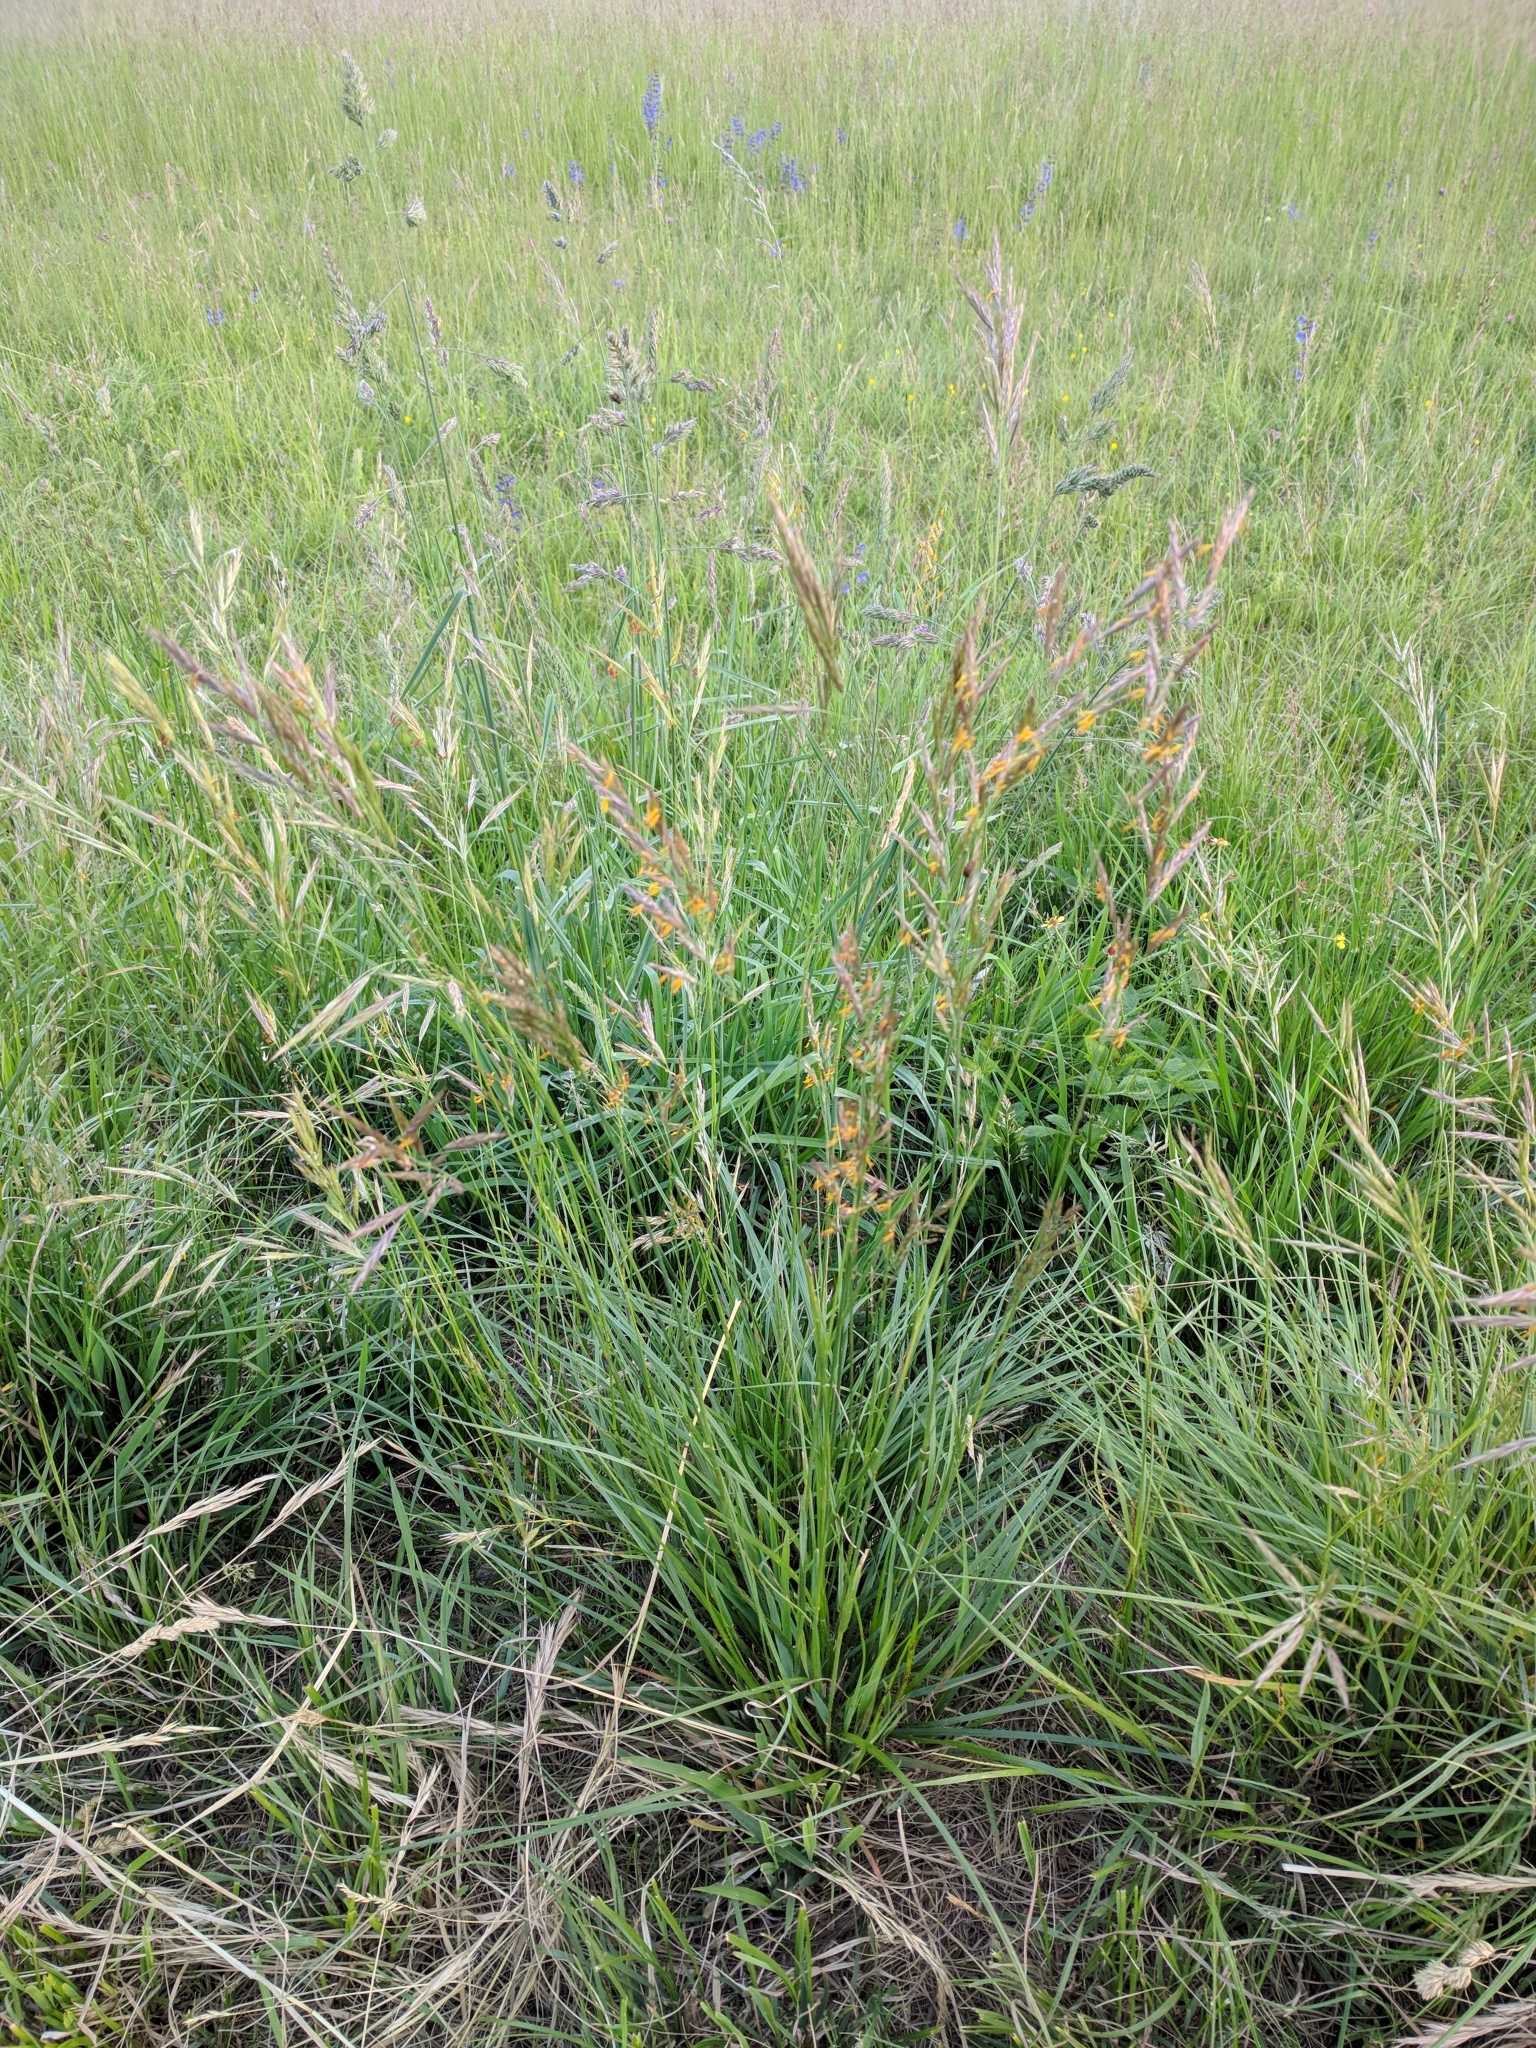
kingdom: Plantae
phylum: Tracheophyta
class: Liliopsida
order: Poales
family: Poaceae
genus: Bromus
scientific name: Bromus erectus
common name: Erect brome
